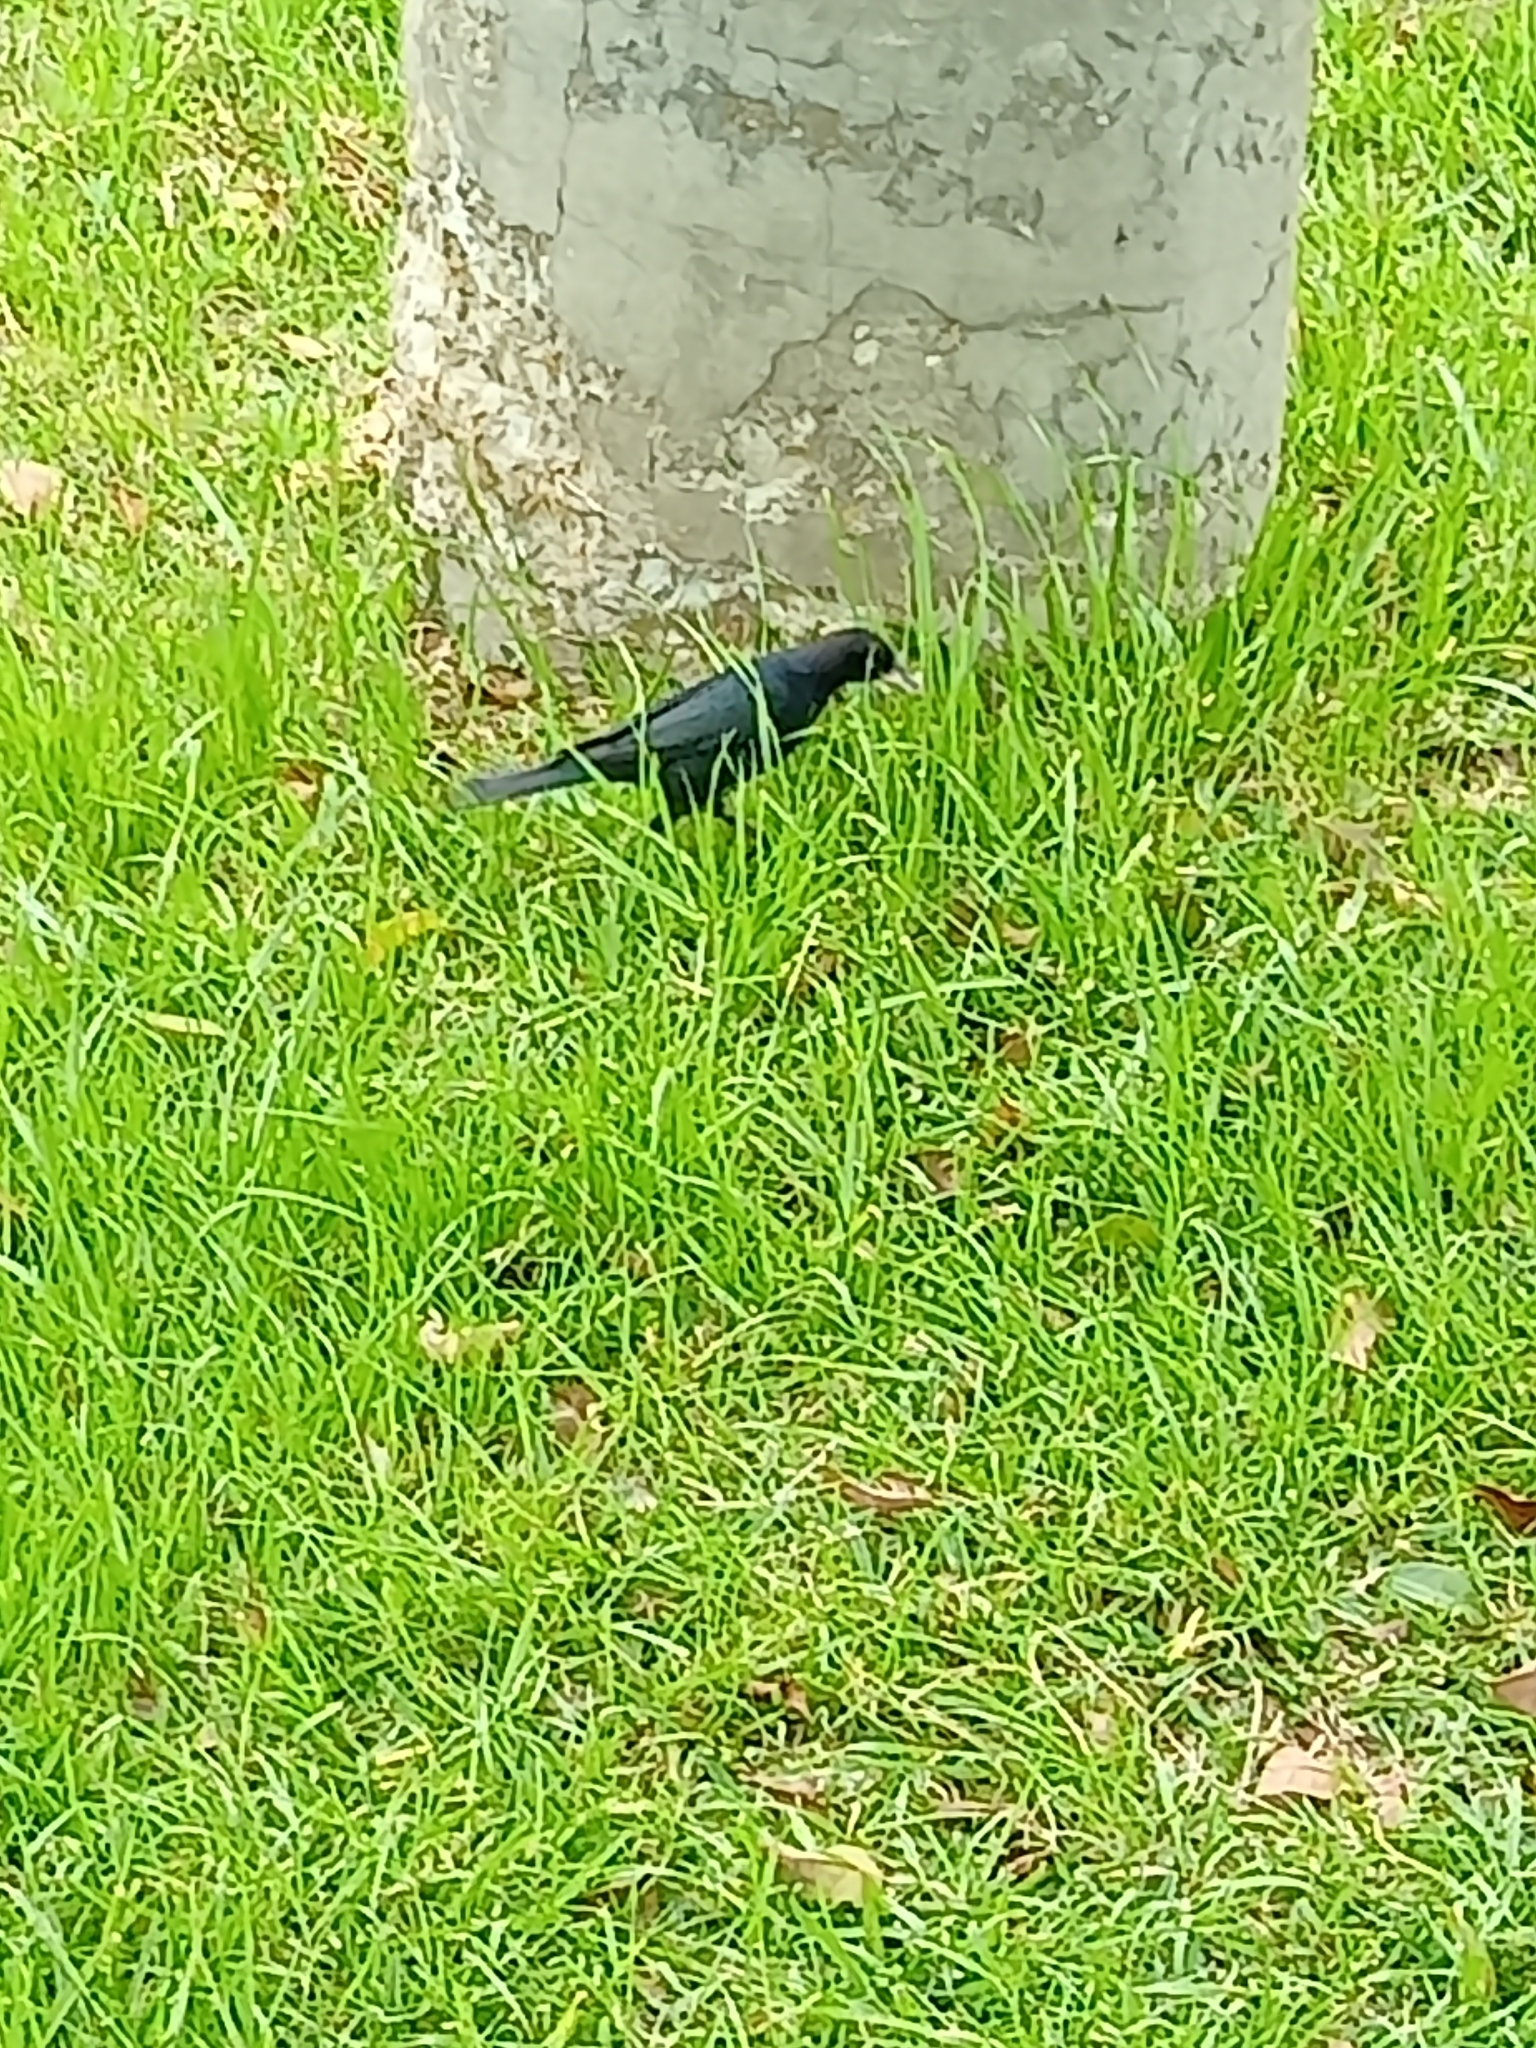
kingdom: Animalia
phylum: Chordata
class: Aves
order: Passeriformes
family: Icteridae
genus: Euphagus
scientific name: Euphagus cyanocephalus
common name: Brewer's blackbird
